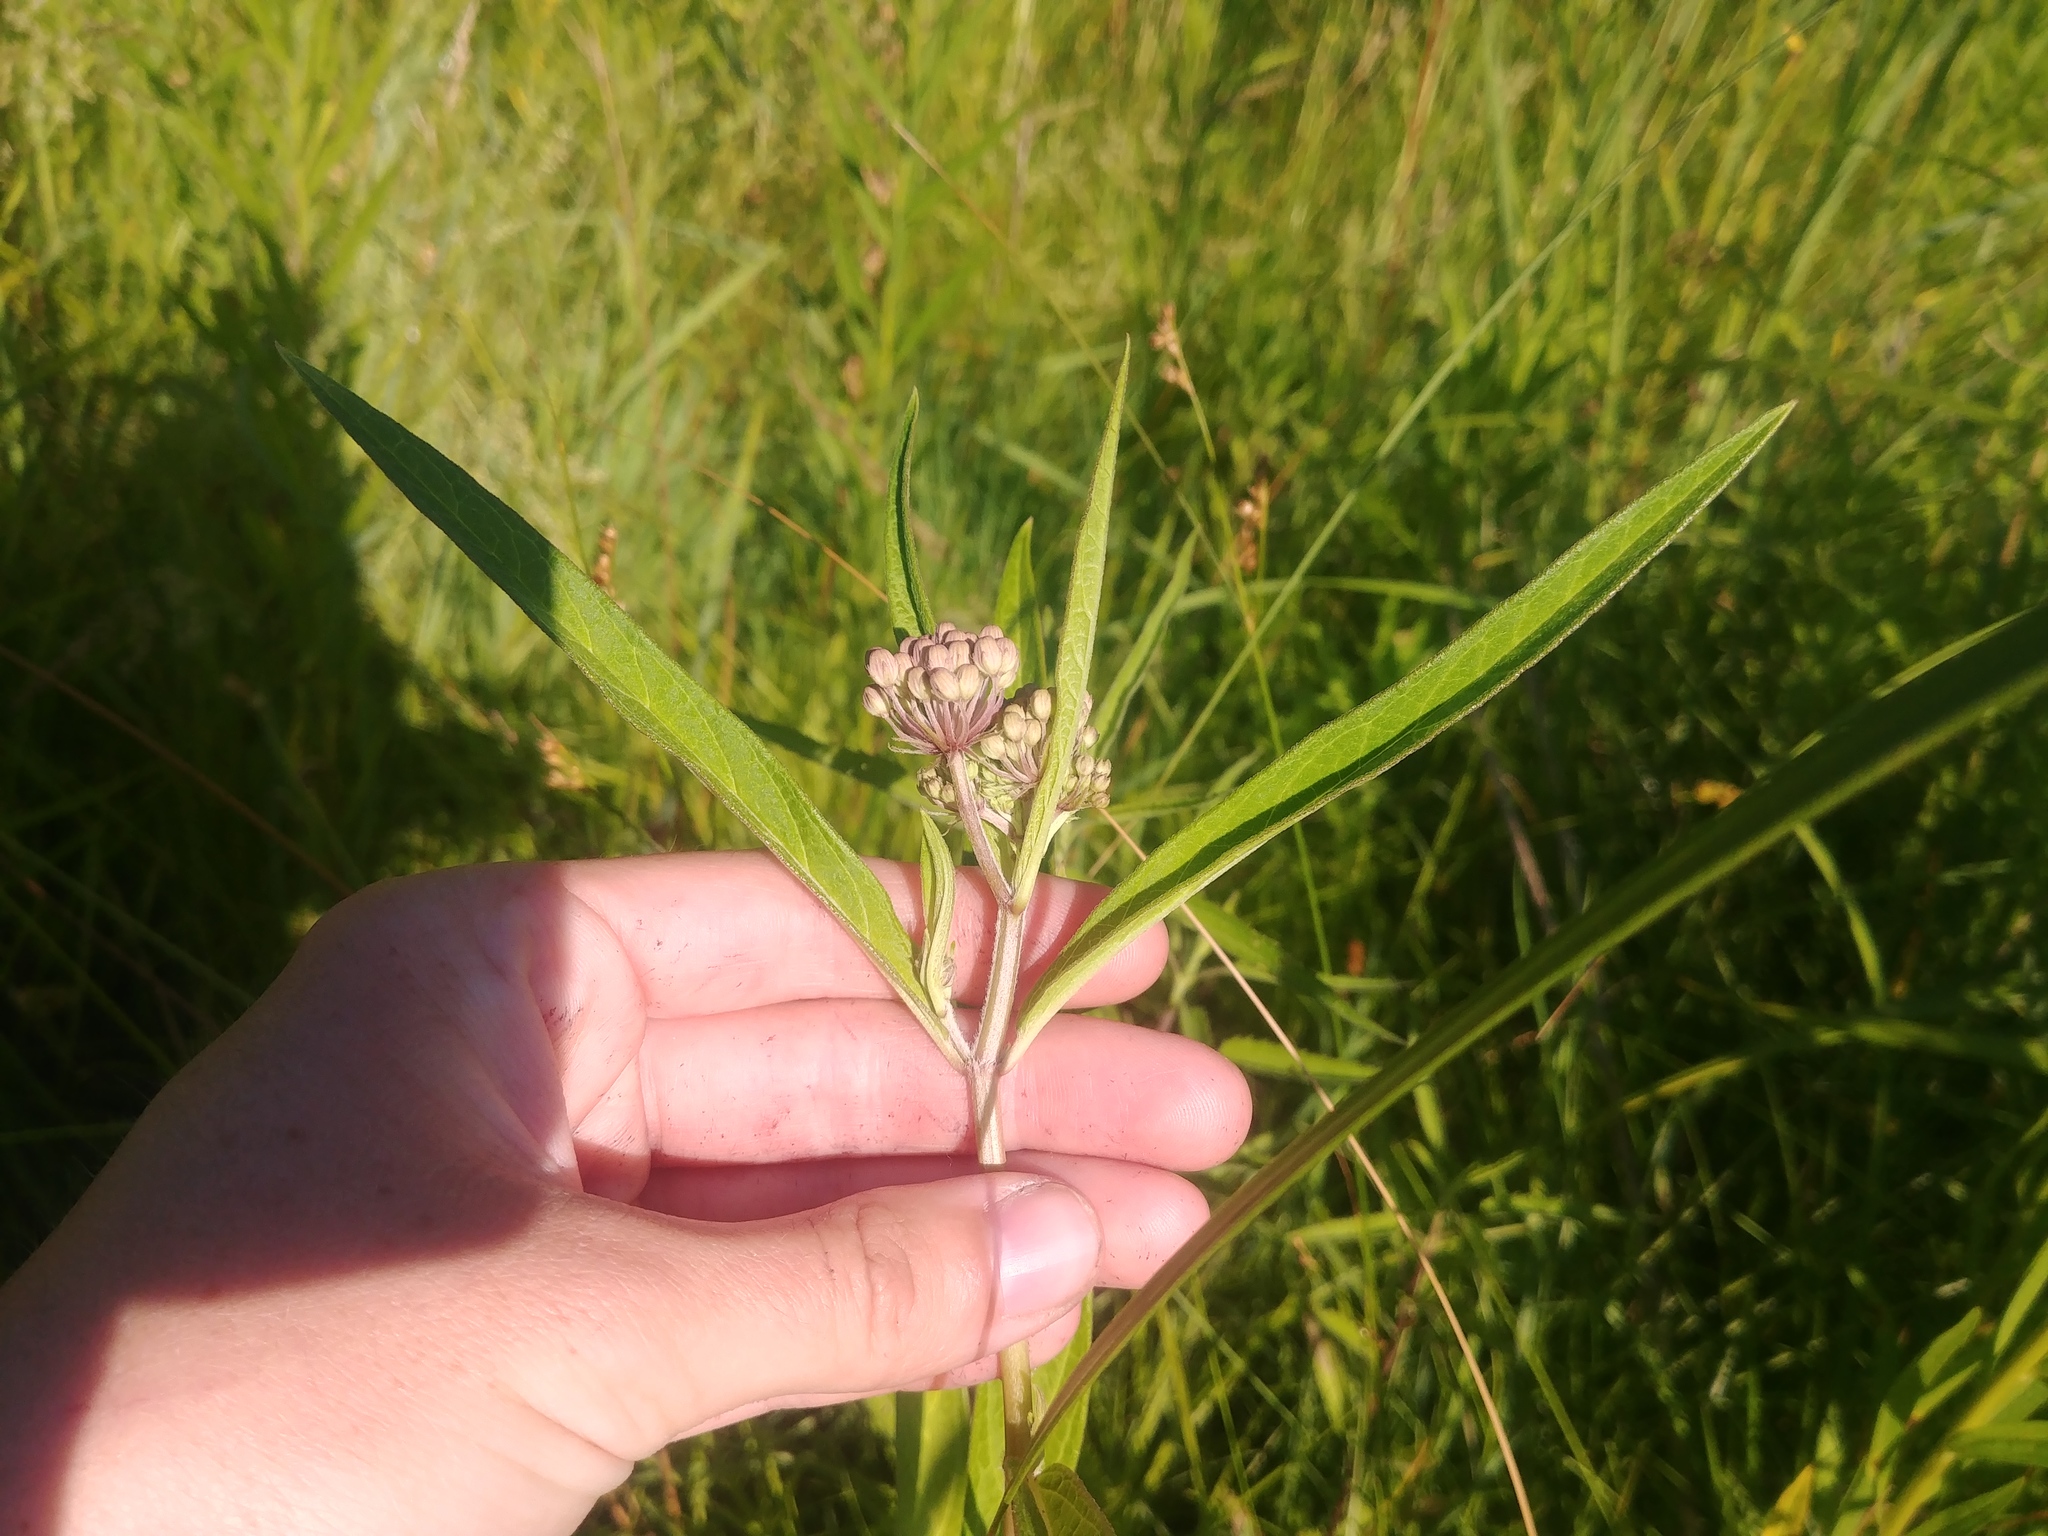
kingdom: Plantae
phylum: Tracheophyta
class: Magnoliopsida
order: Gentianales
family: Apocynaceae
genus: Asclepias
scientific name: Asclepias incarnata
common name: Swamp milkweed
